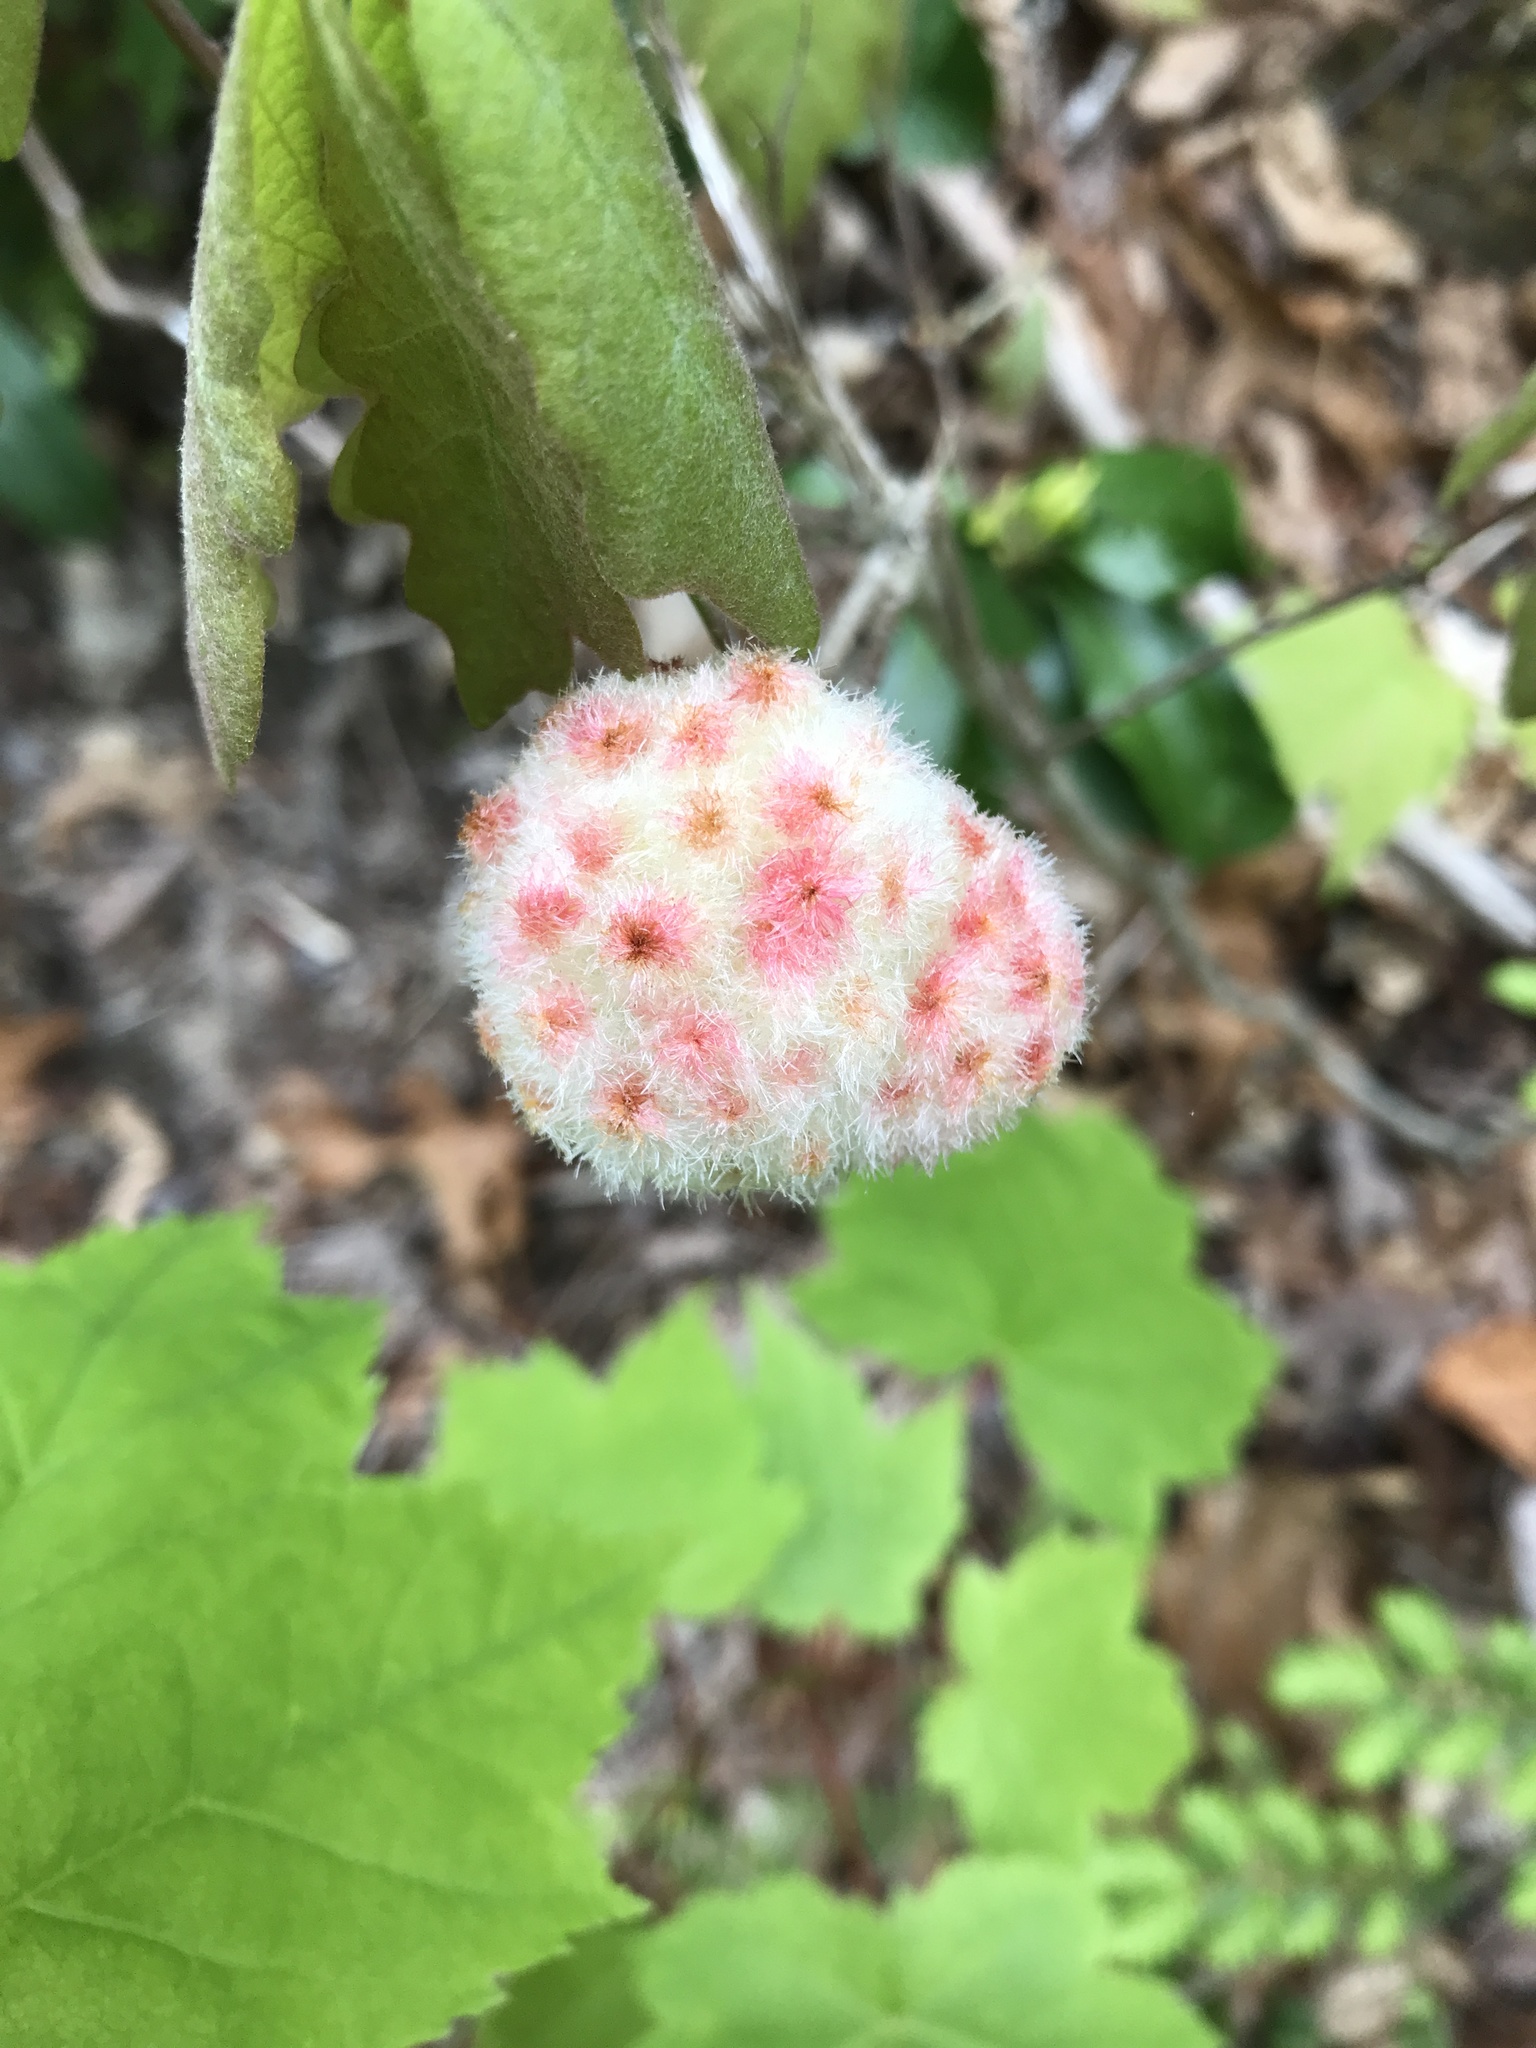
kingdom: Animalia
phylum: Arthropoda
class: Insecta
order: Hymenoptera
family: Cynipidae
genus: Callirhytis
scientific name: Callirhytis
